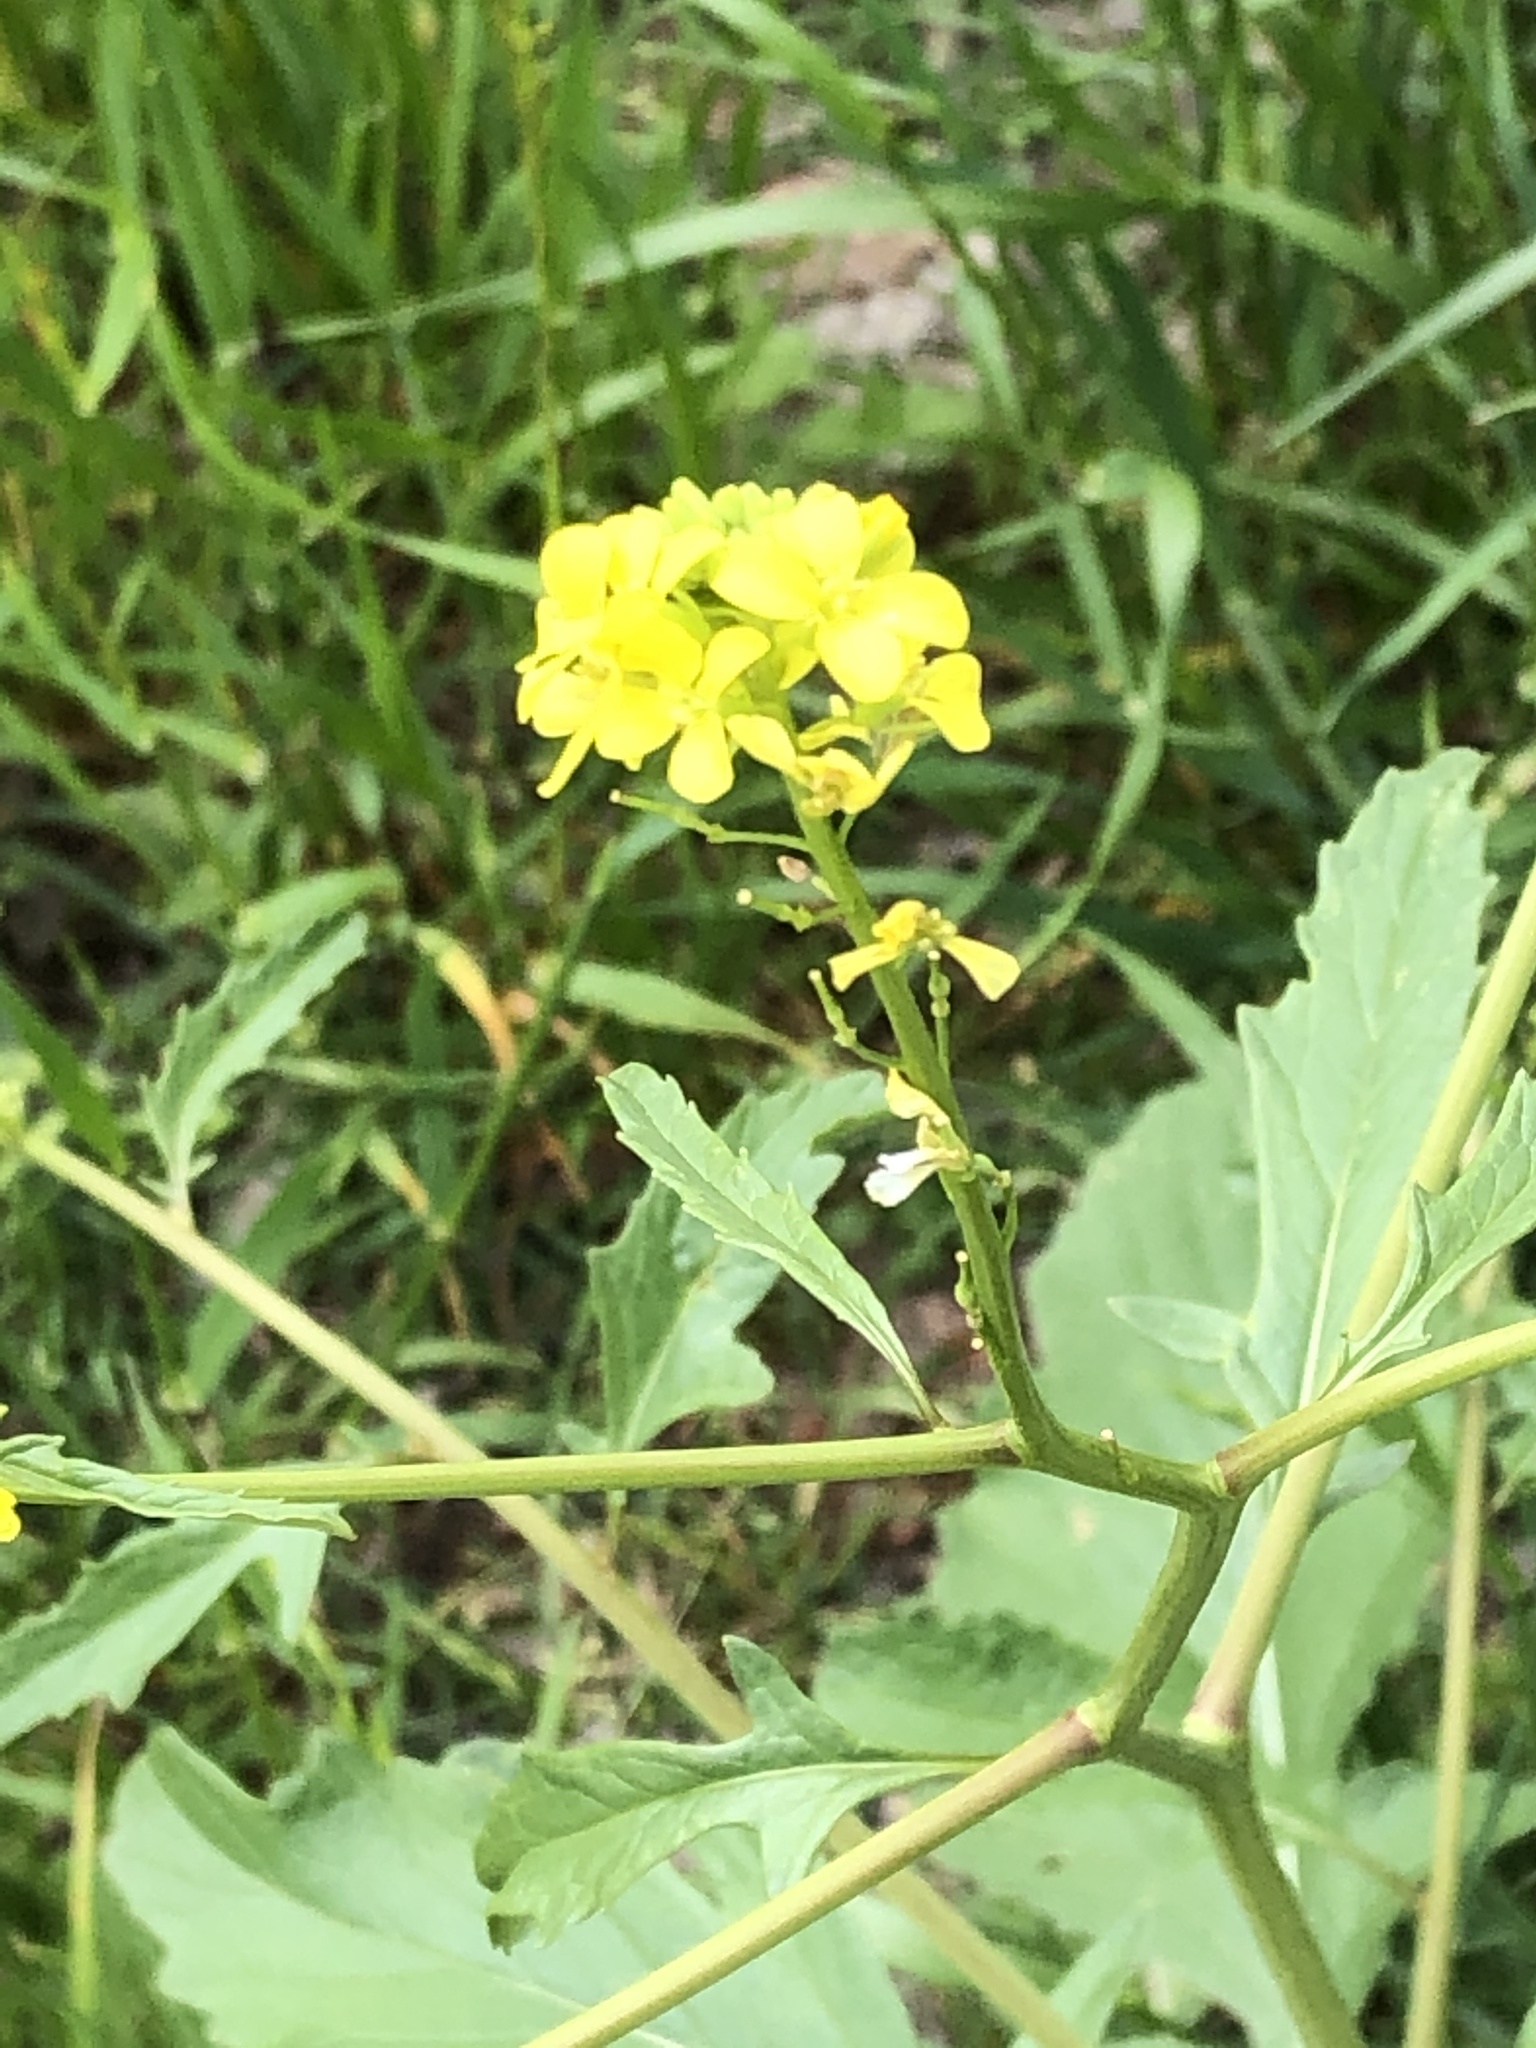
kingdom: Plantae
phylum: Tracheophyta
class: Magnoliopsida
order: Brassicales
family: Brassicaceae
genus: Rapistrum
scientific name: Rapistrum rugosum
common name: Annual bastardcabbage
